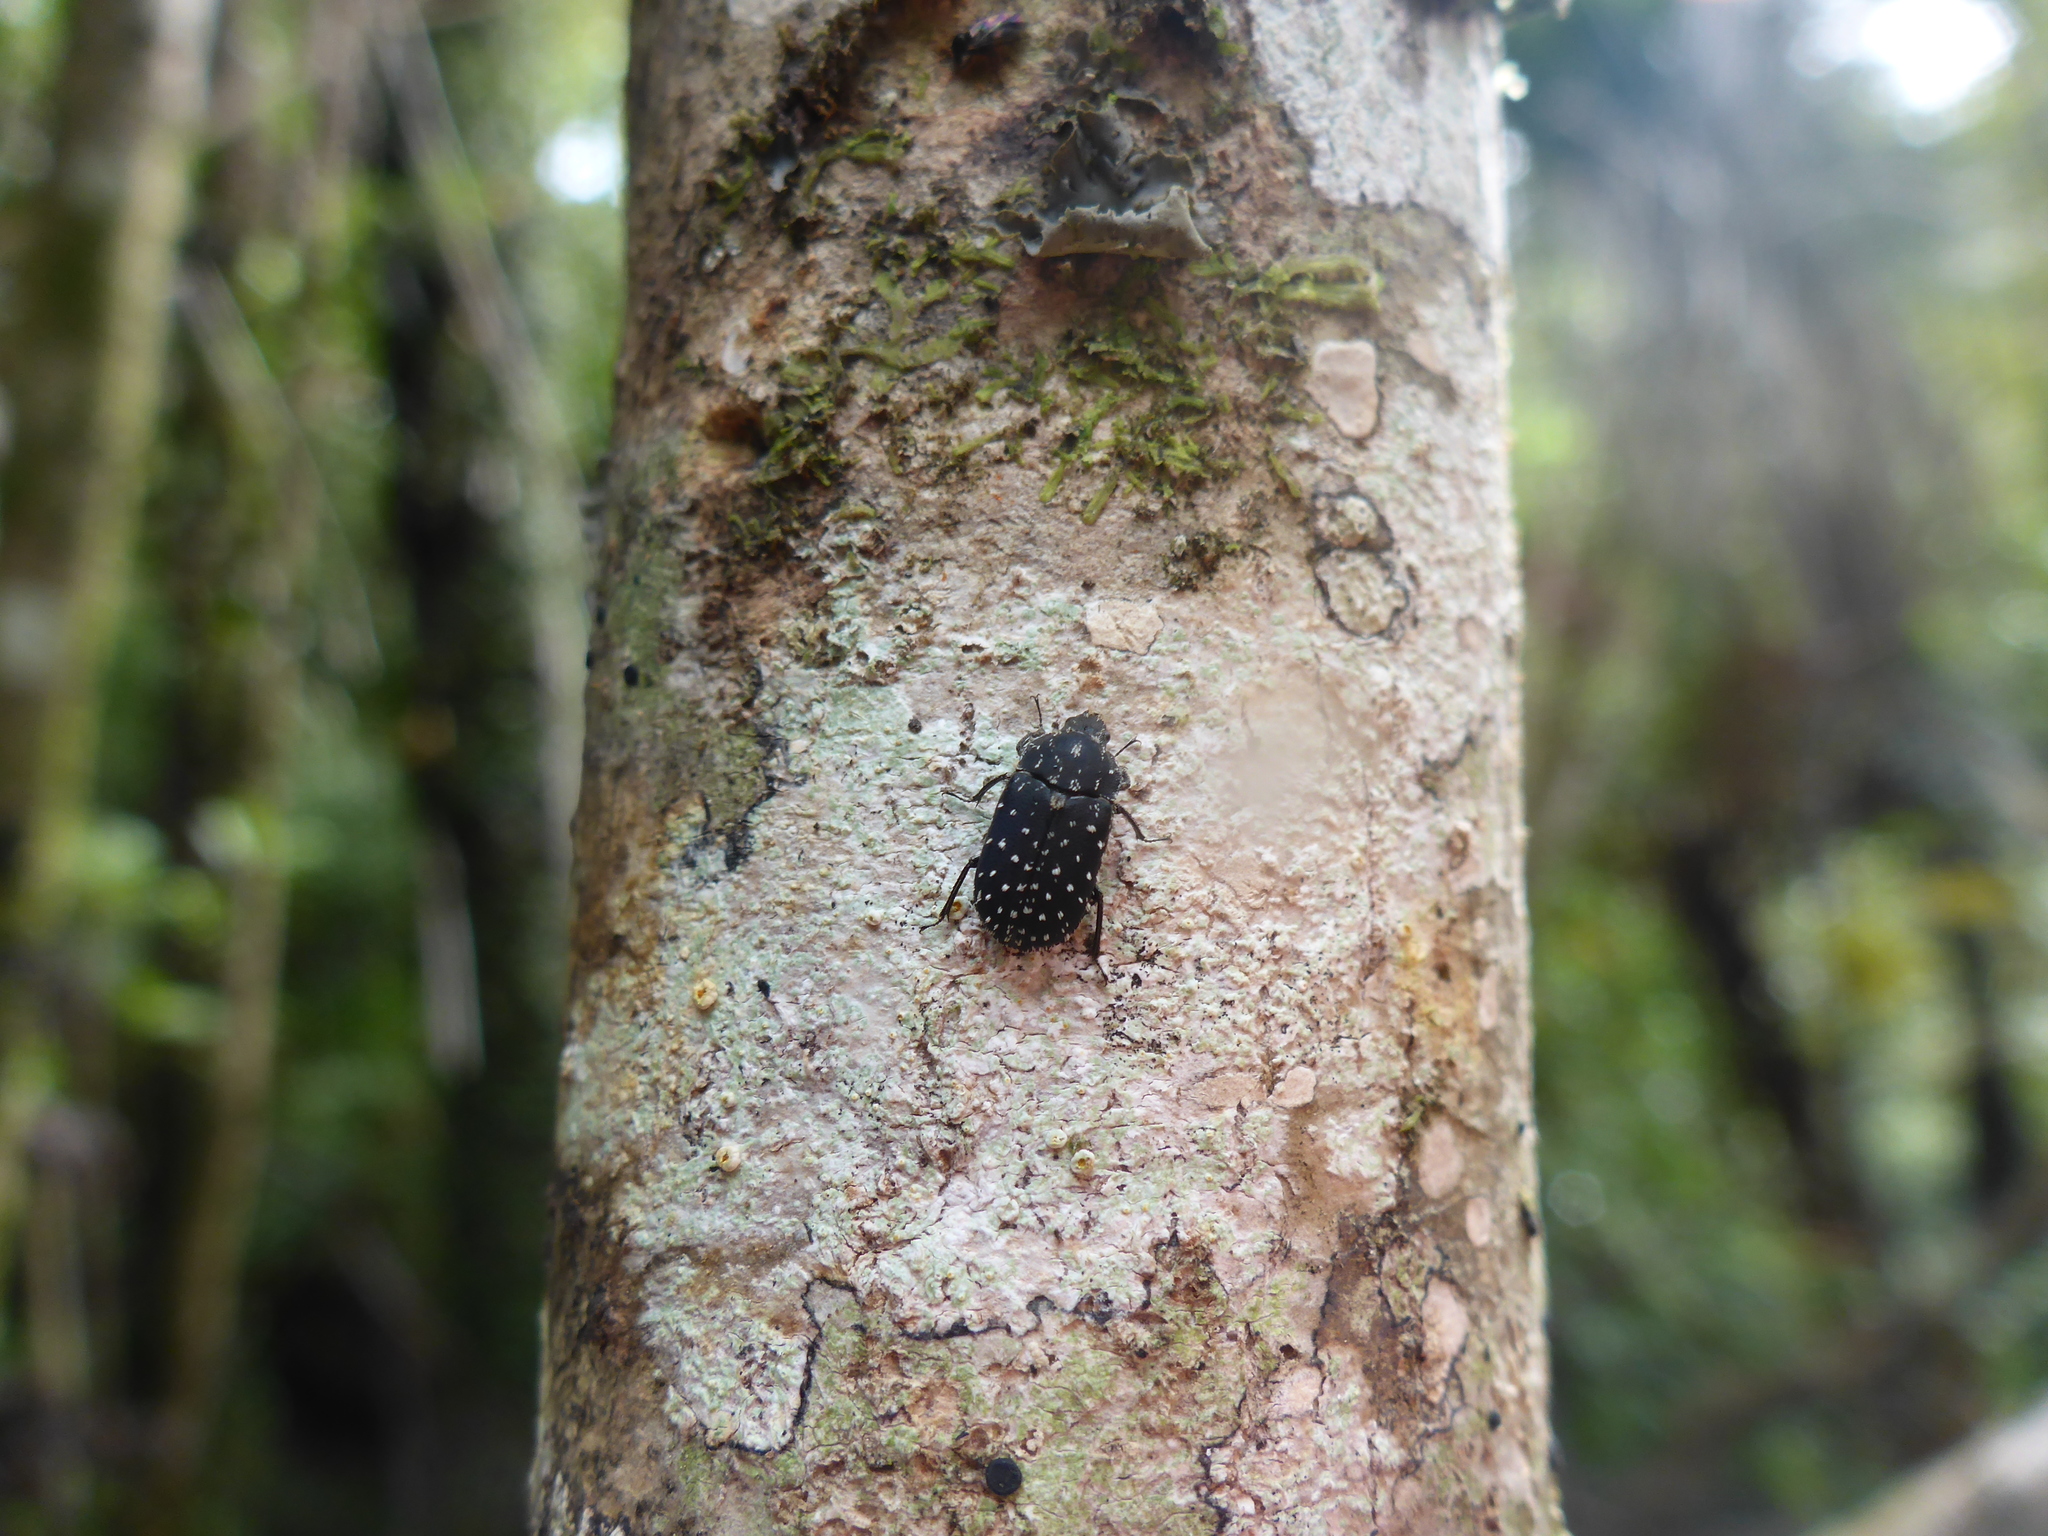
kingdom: Animalia
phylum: Arthropoda
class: Insecta
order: Coleoptera
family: Lucanidae
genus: Mitophyllus
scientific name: Mitophyllus macrocerus
